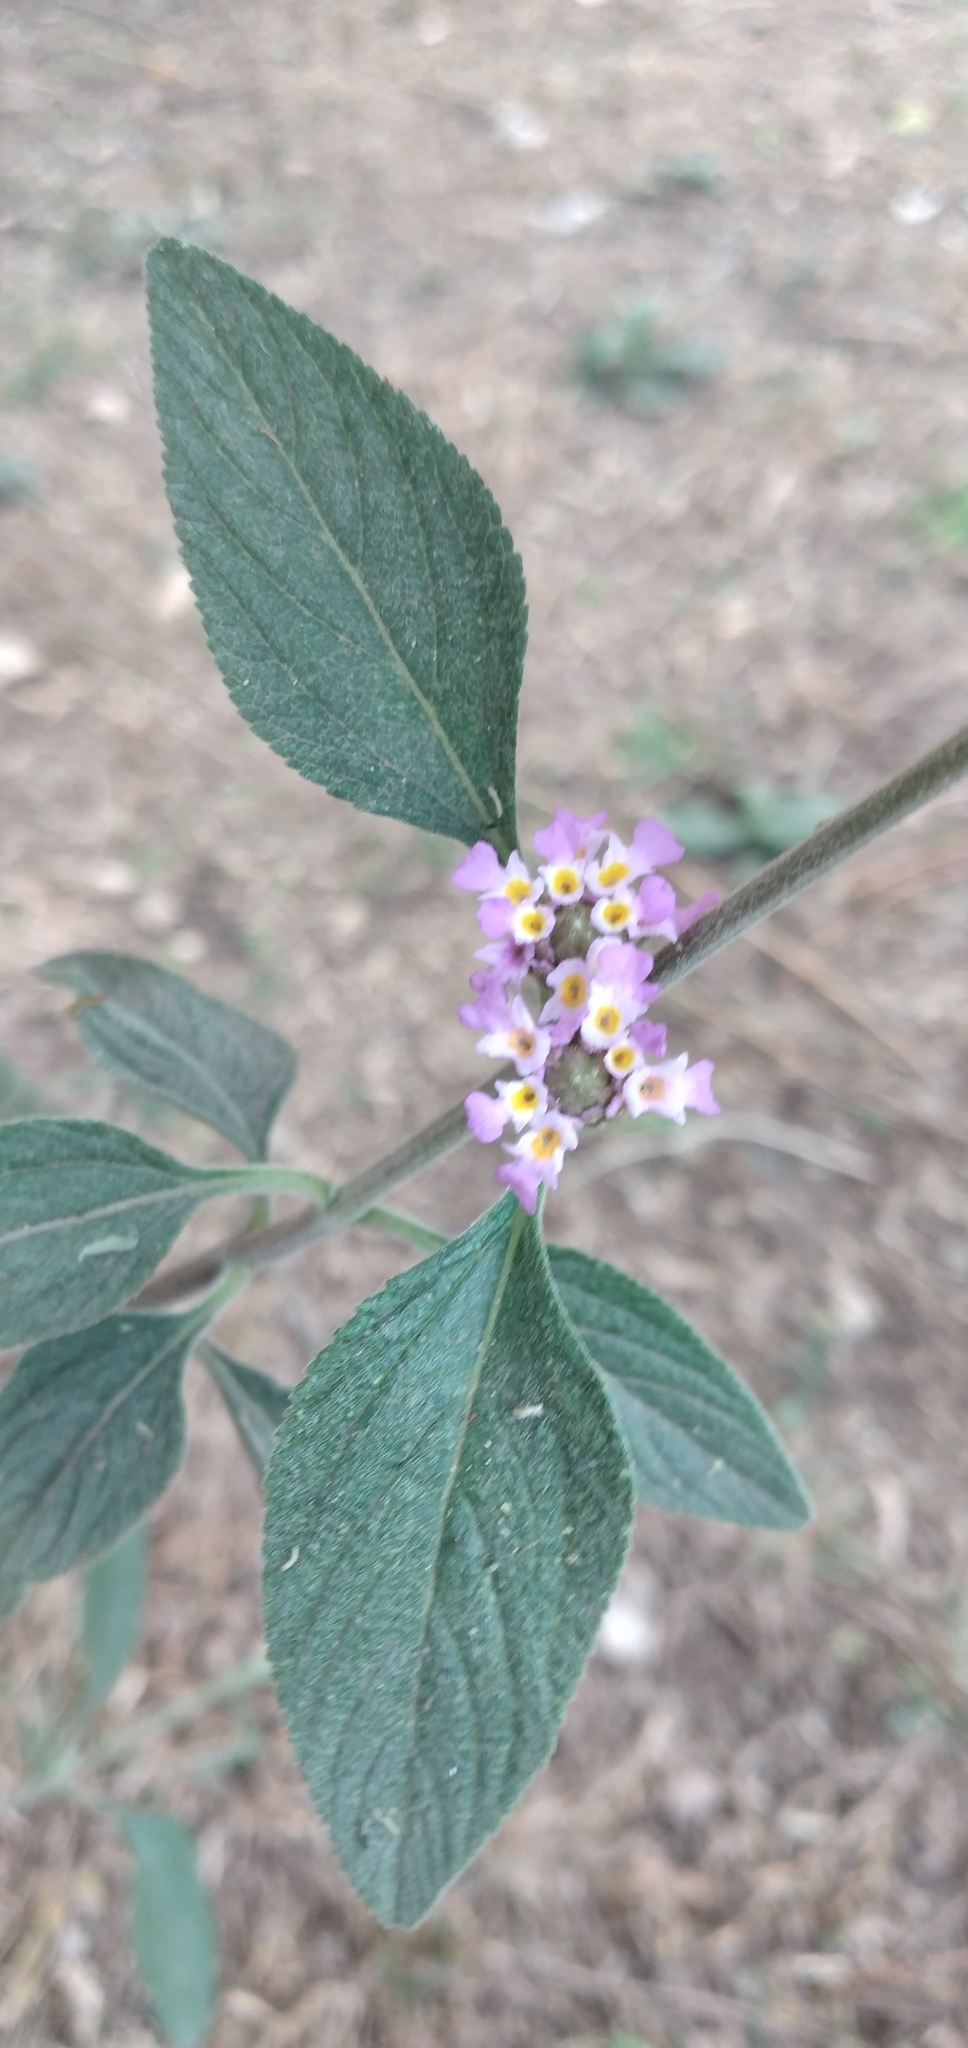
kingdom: Plantae
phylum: Tracheophyta
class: Magnoliopsida
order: Lamiales
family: Verbenaceae
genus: Lippia
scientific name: Lippia alba
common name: Bushy matgrass
